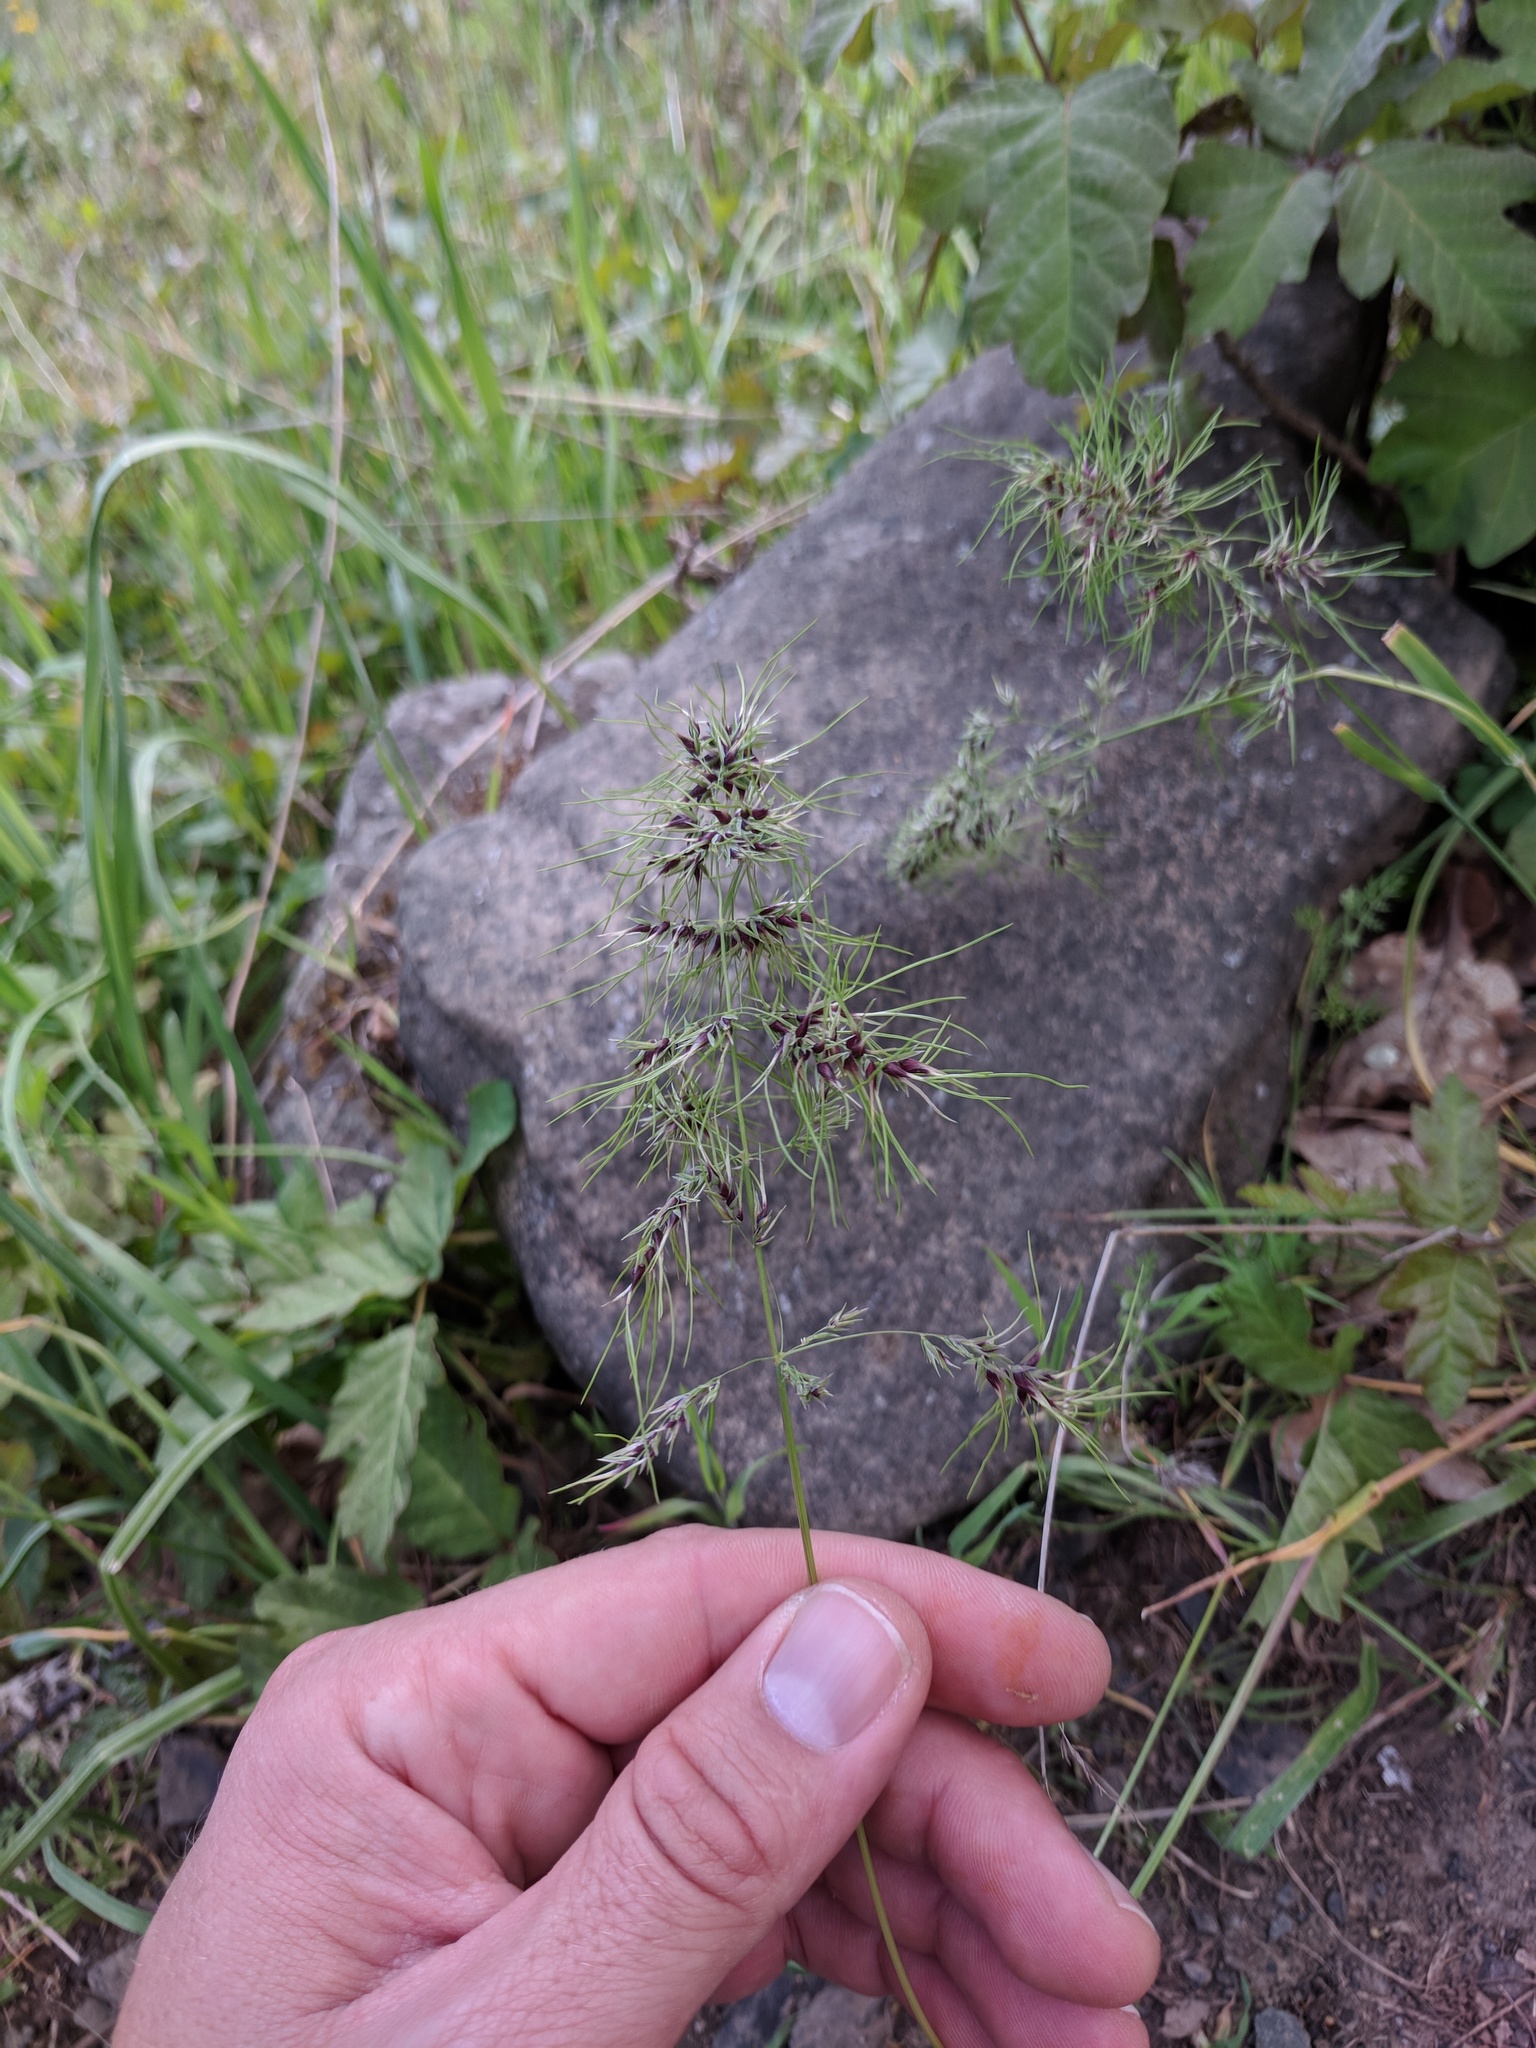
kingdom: Plantae
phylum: Tracheophyta
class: Liliopsida
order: Poales
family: Poaceae
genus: Poa
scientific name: Poa bulbosa
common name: Bulbous bluegrass
